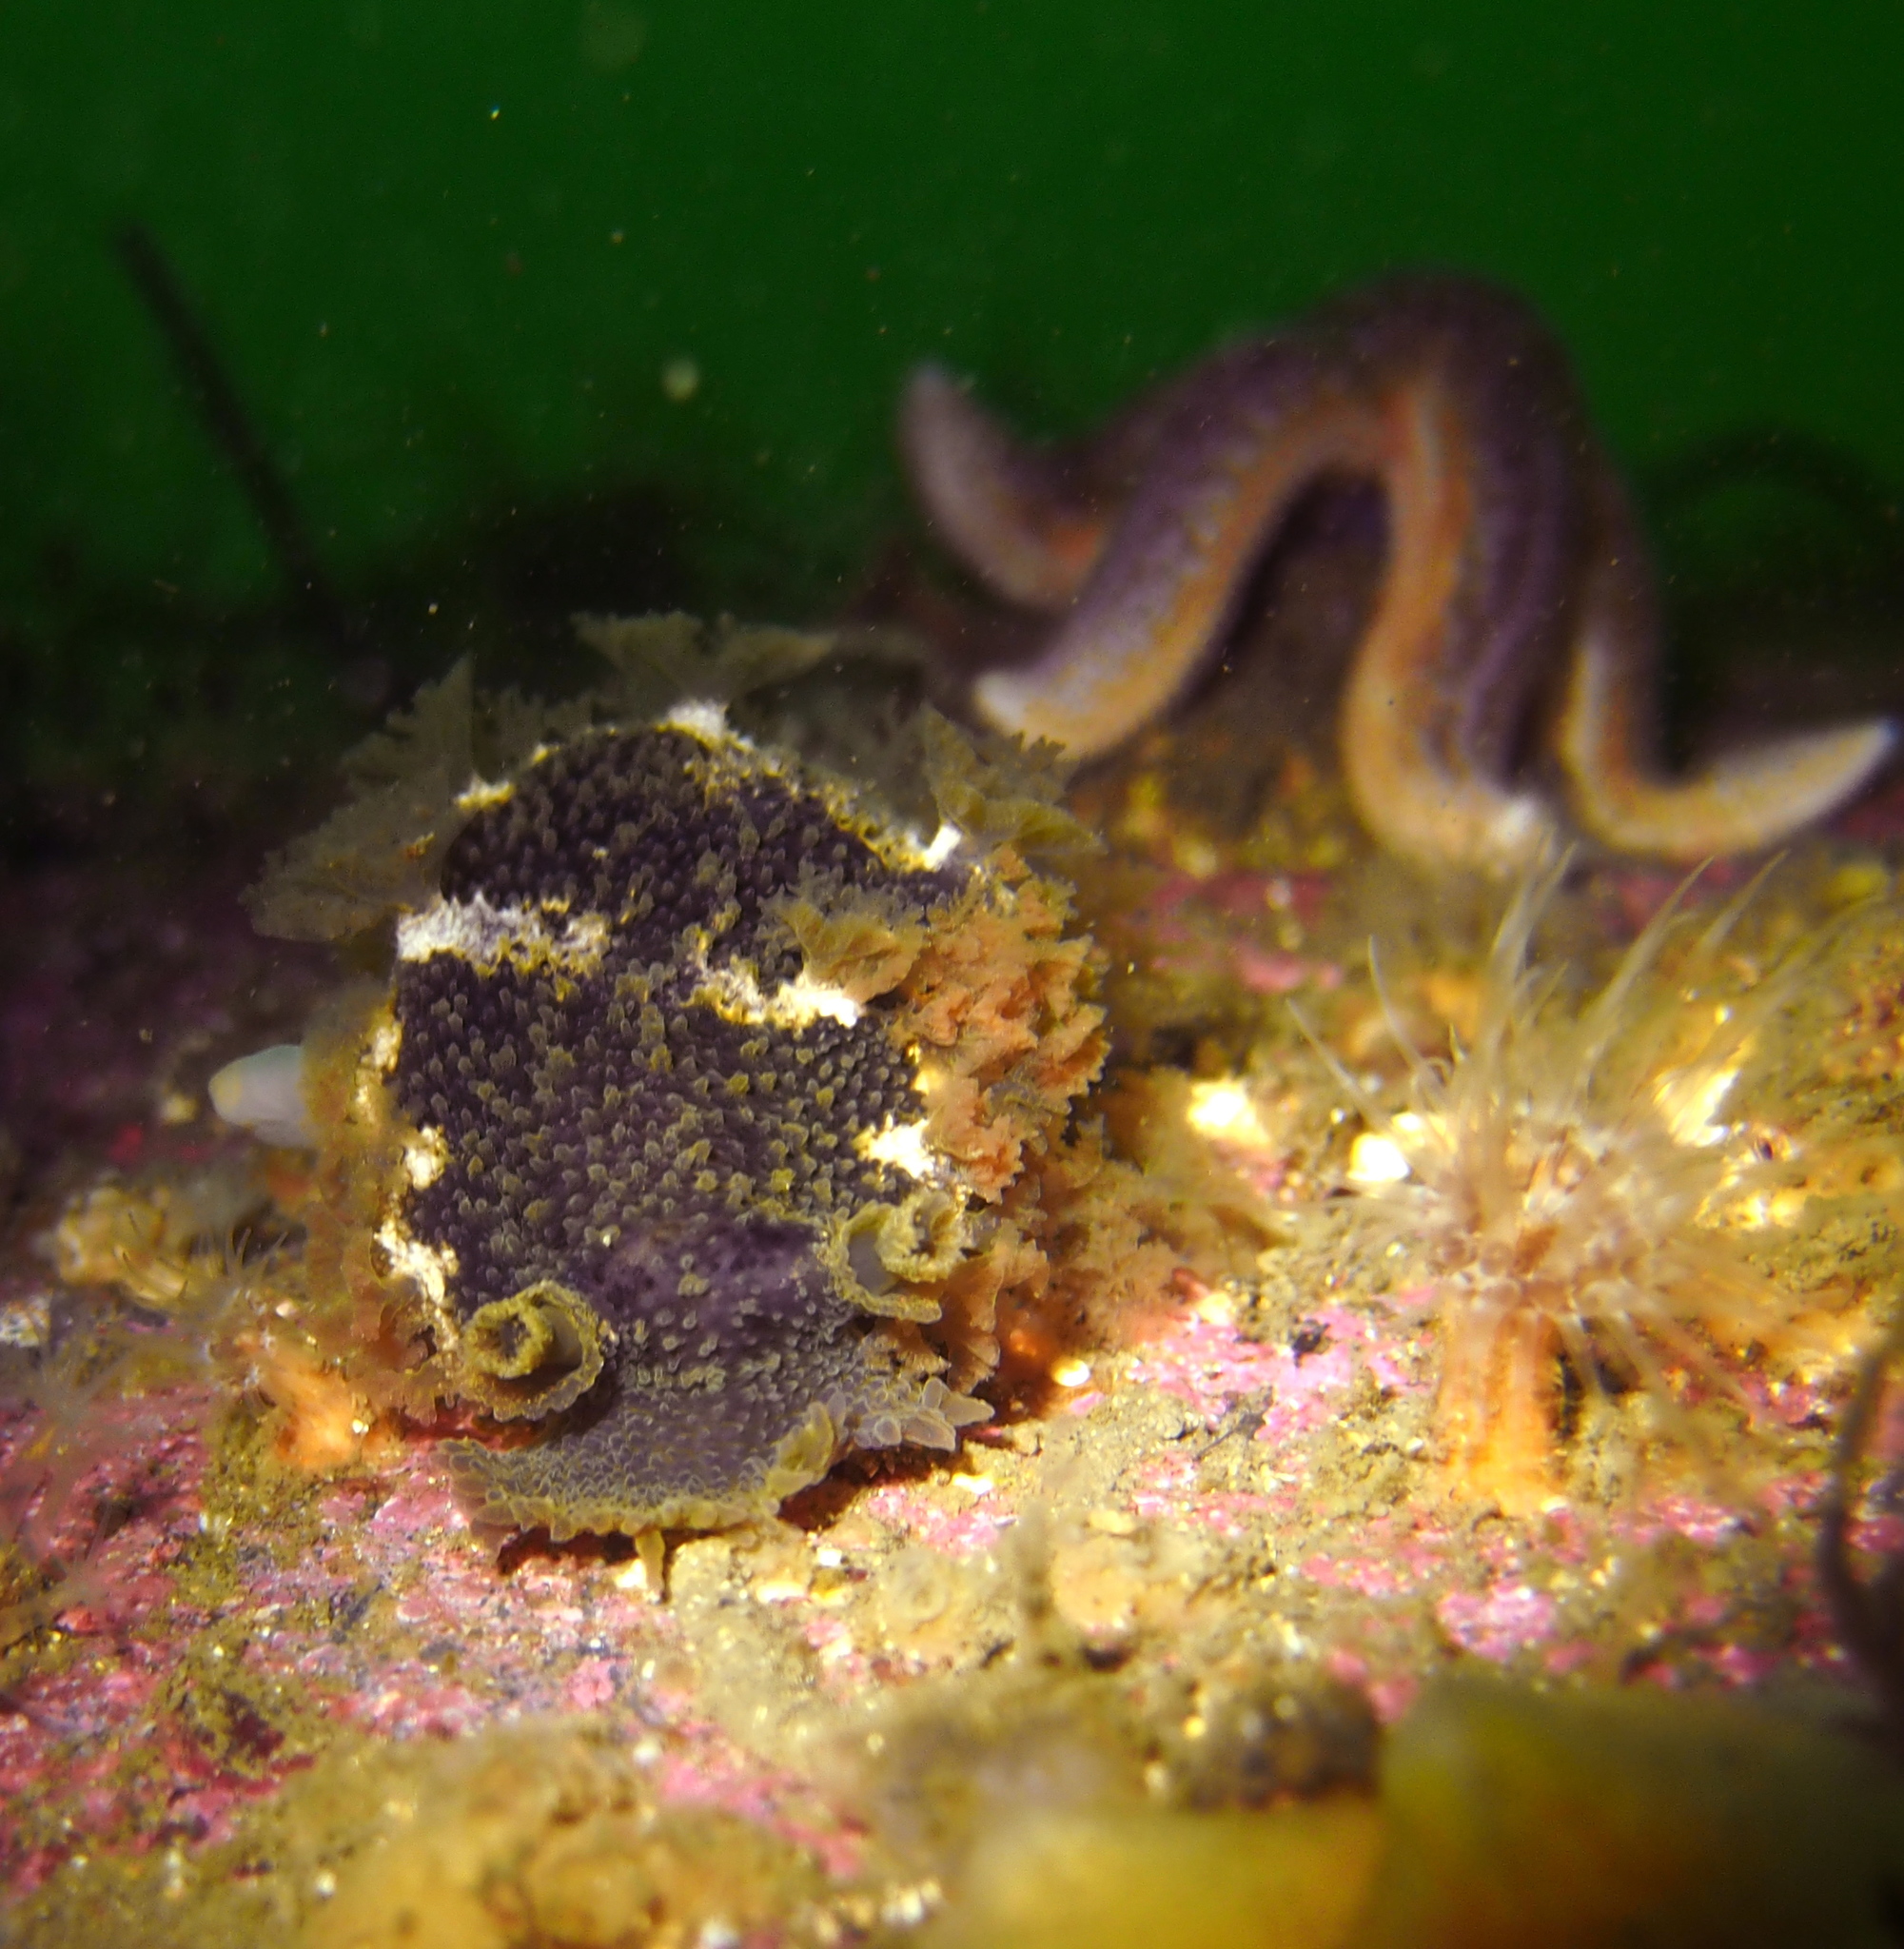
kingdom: Animalia
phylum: Mollusca
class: Gastropoda
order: Nudibranchia
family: Tritoniidae
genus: Tritonia
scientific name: Tritonia hombergii
